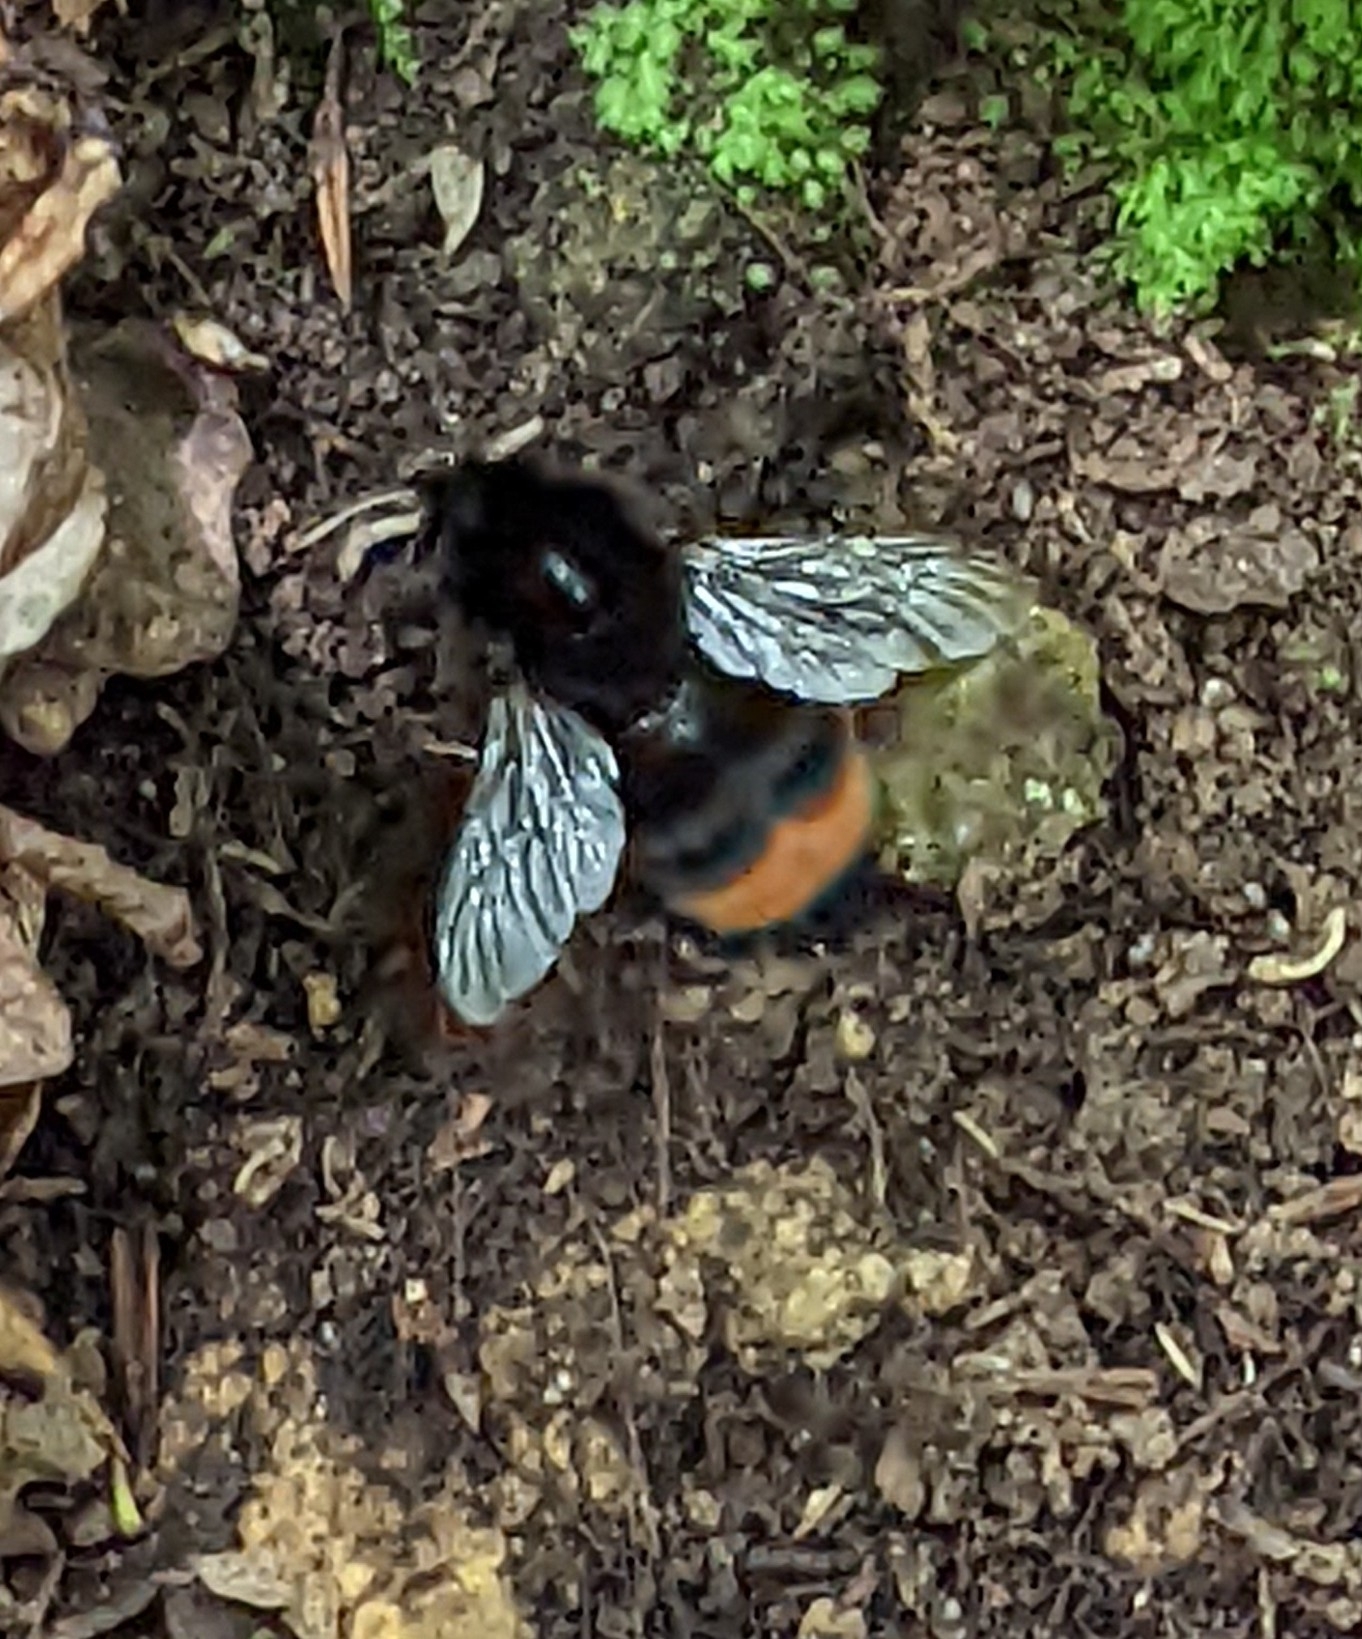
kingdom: Animalia
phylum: Arthropoda
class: Insecta
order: Hymenoptera
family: Apidae
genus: Bombus
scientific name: Bombus lapidarius
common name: Large red-tailed humble-bee
